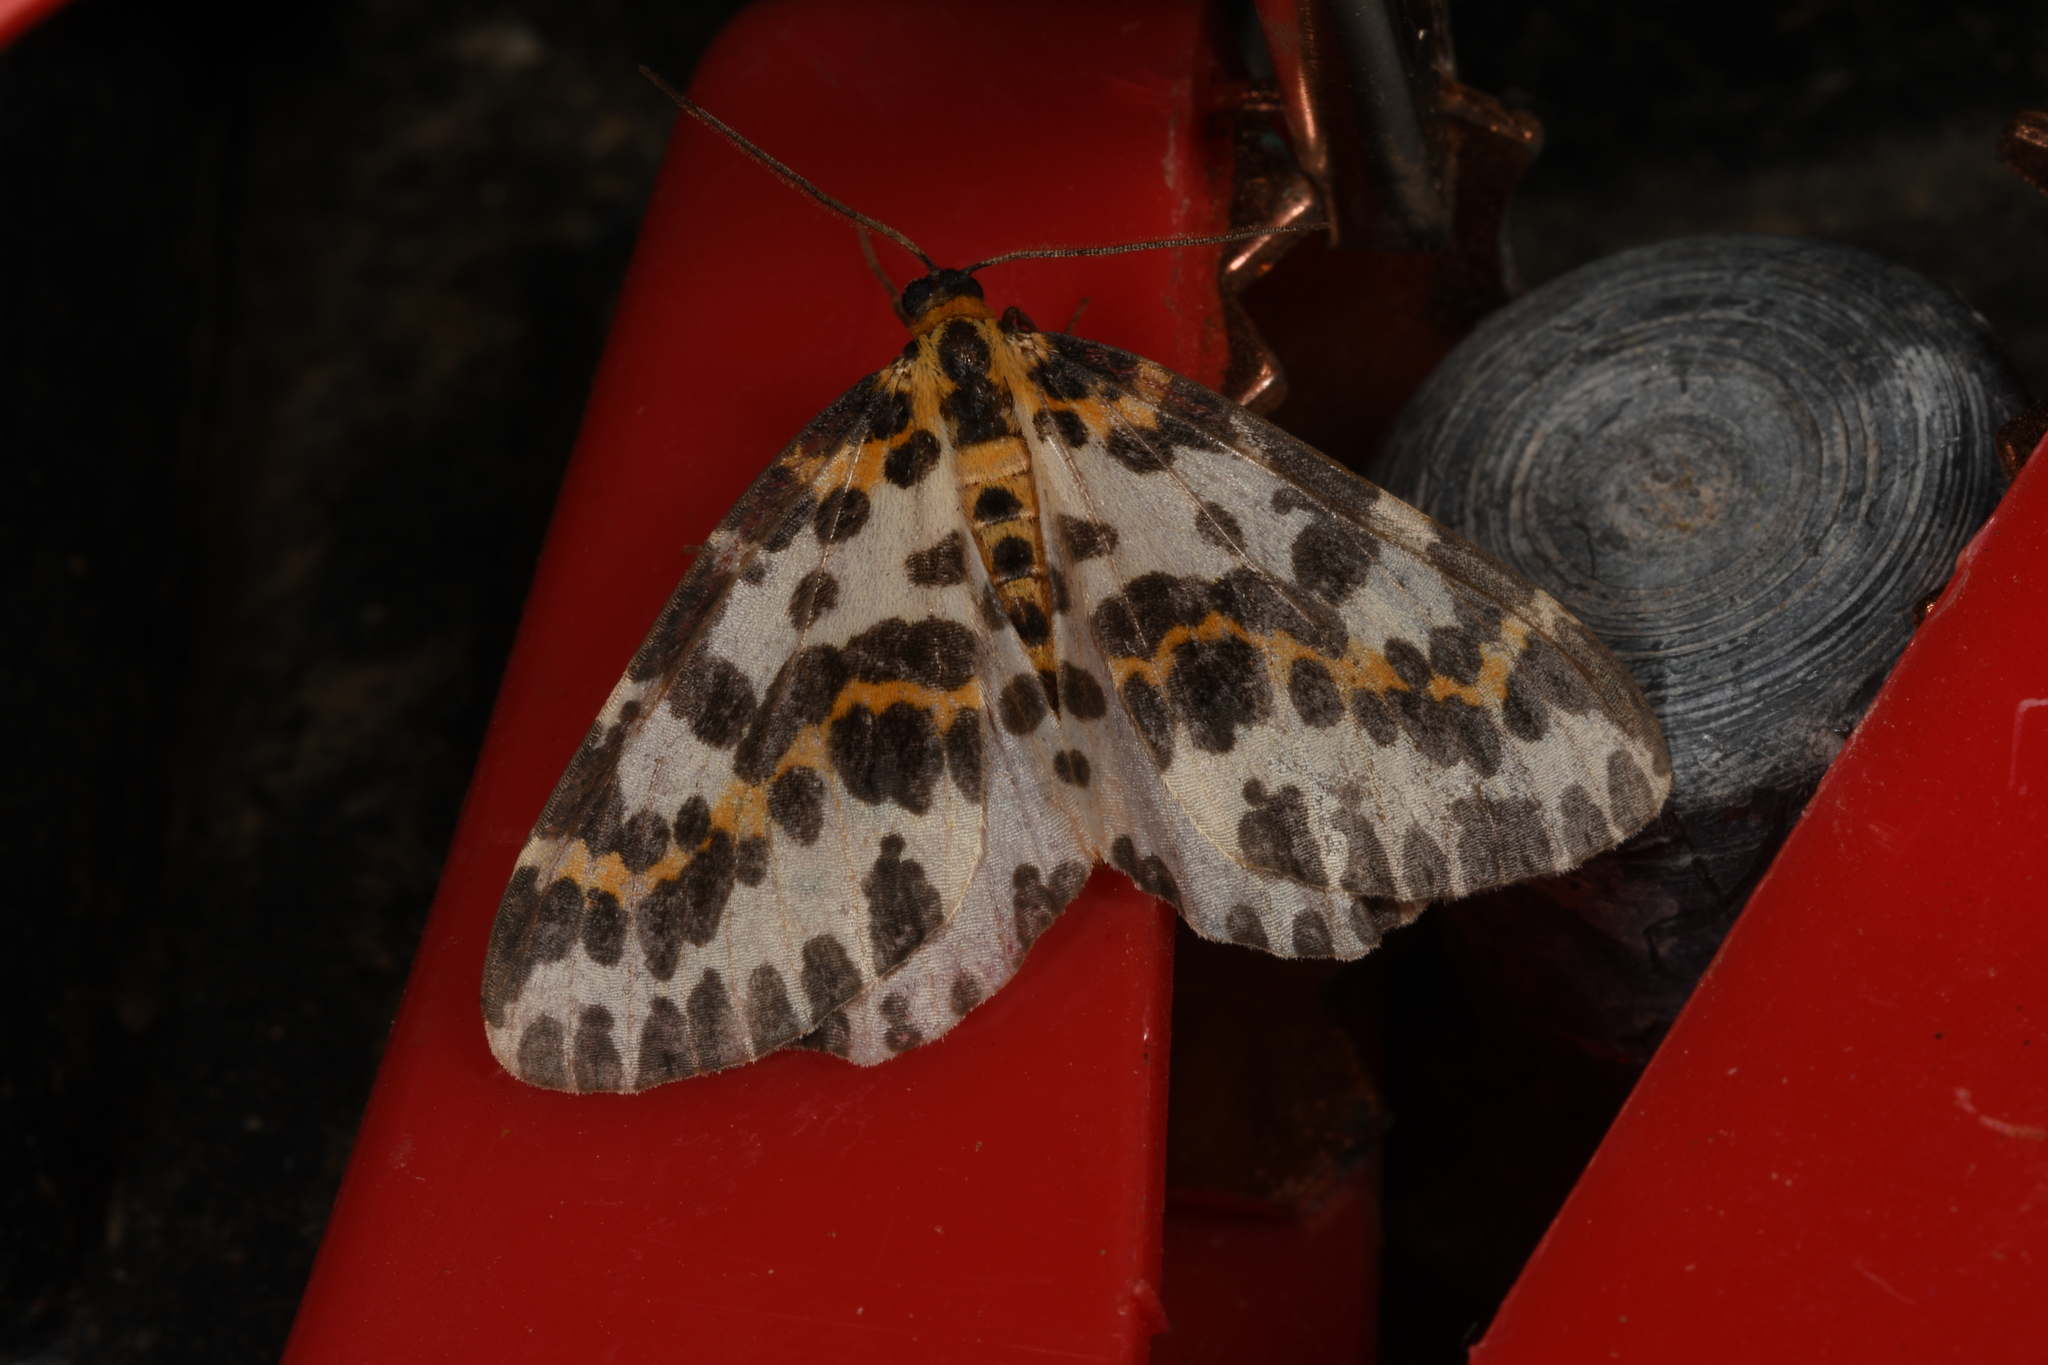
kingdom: Animalia
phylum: Arthropoda
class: Insecta
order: Lepidoptera
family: Geometridae
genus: Abraxas
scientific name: Abraxas grossulariata
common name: Magpie
